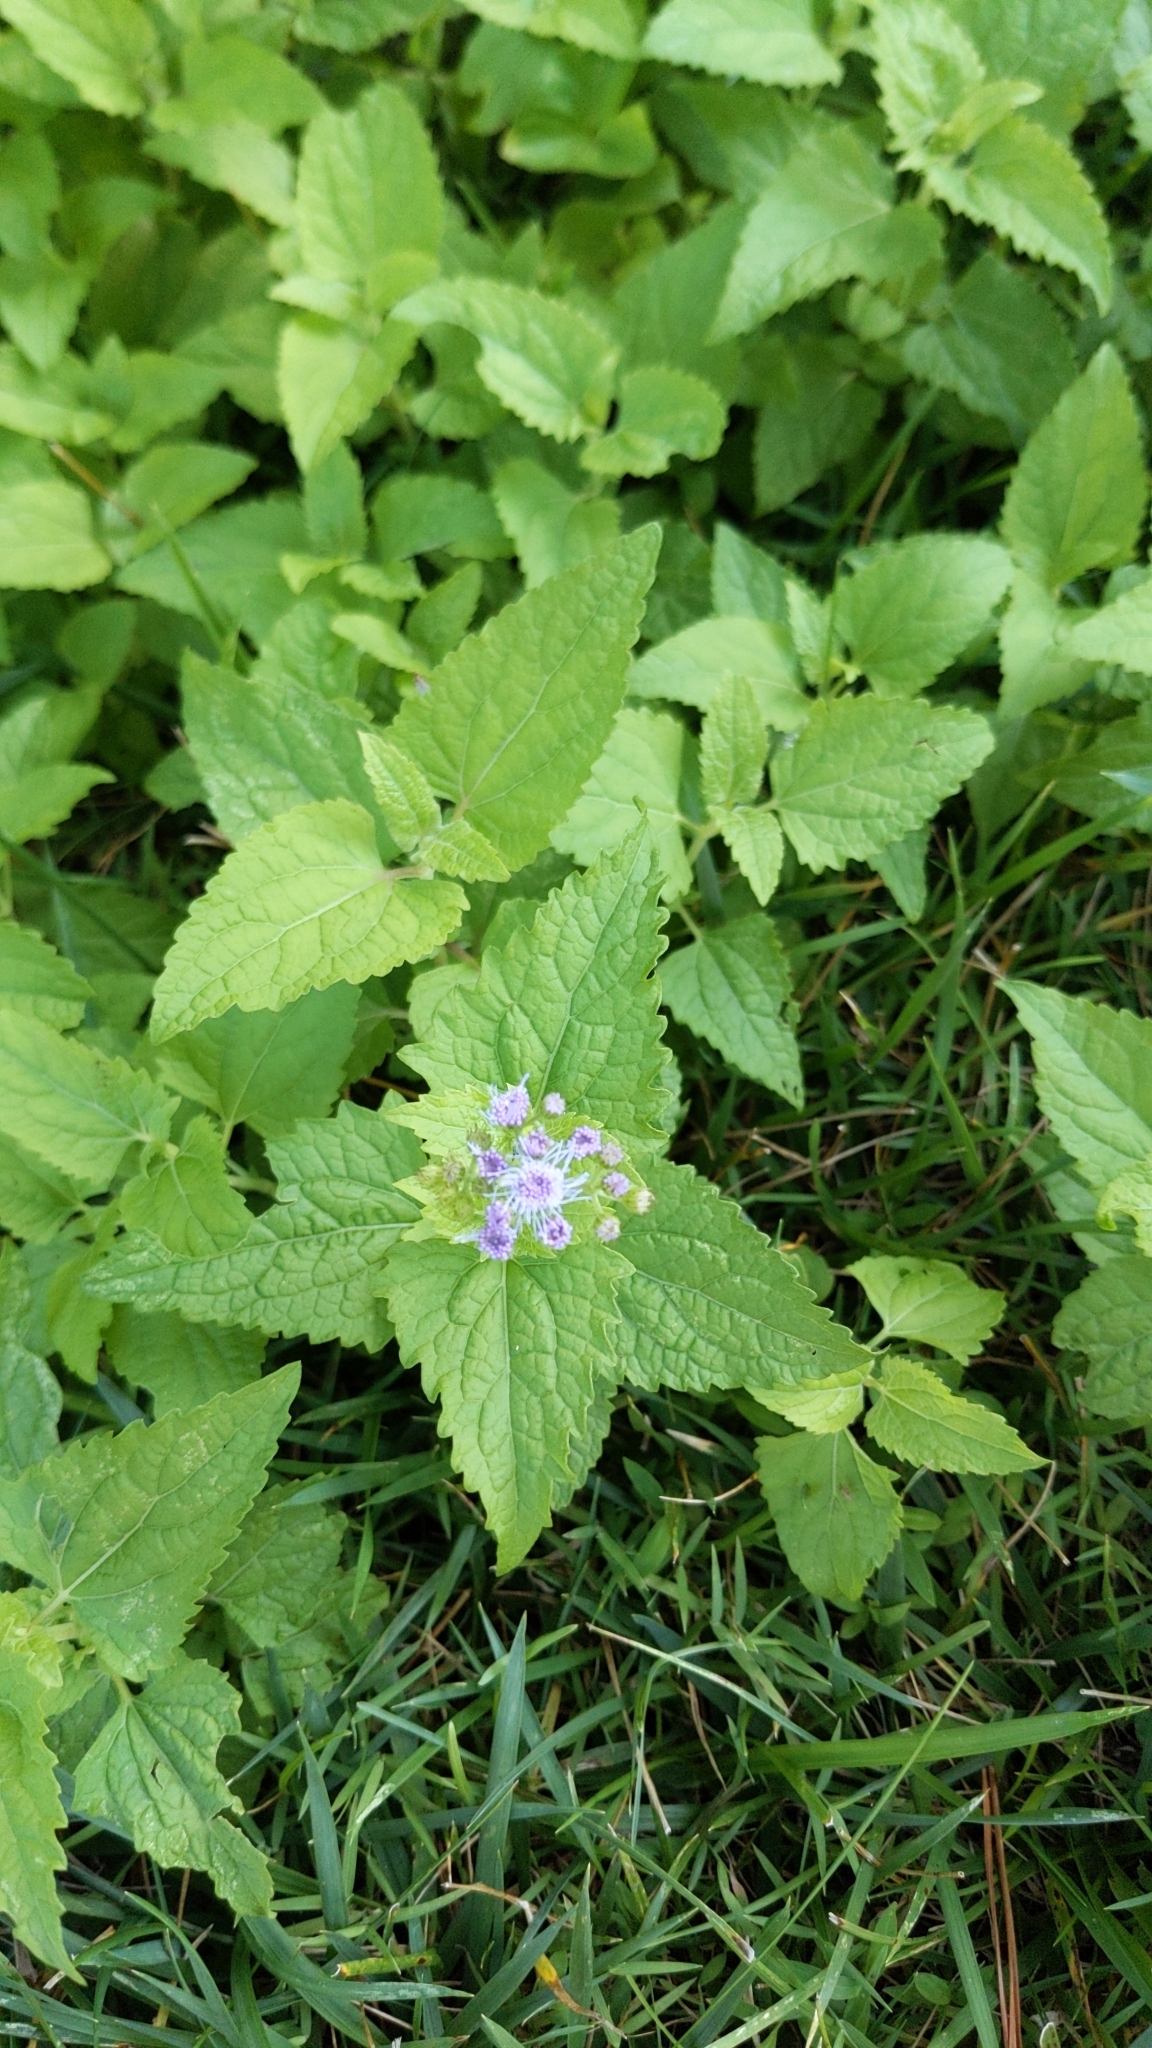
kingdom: Plantae
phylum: Tracheophyta
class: Magnoliopsida
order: Asterales
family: Asteraceae
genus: Conoclinium
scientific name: Conoclinium coelestinum
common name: Blue mistflower
